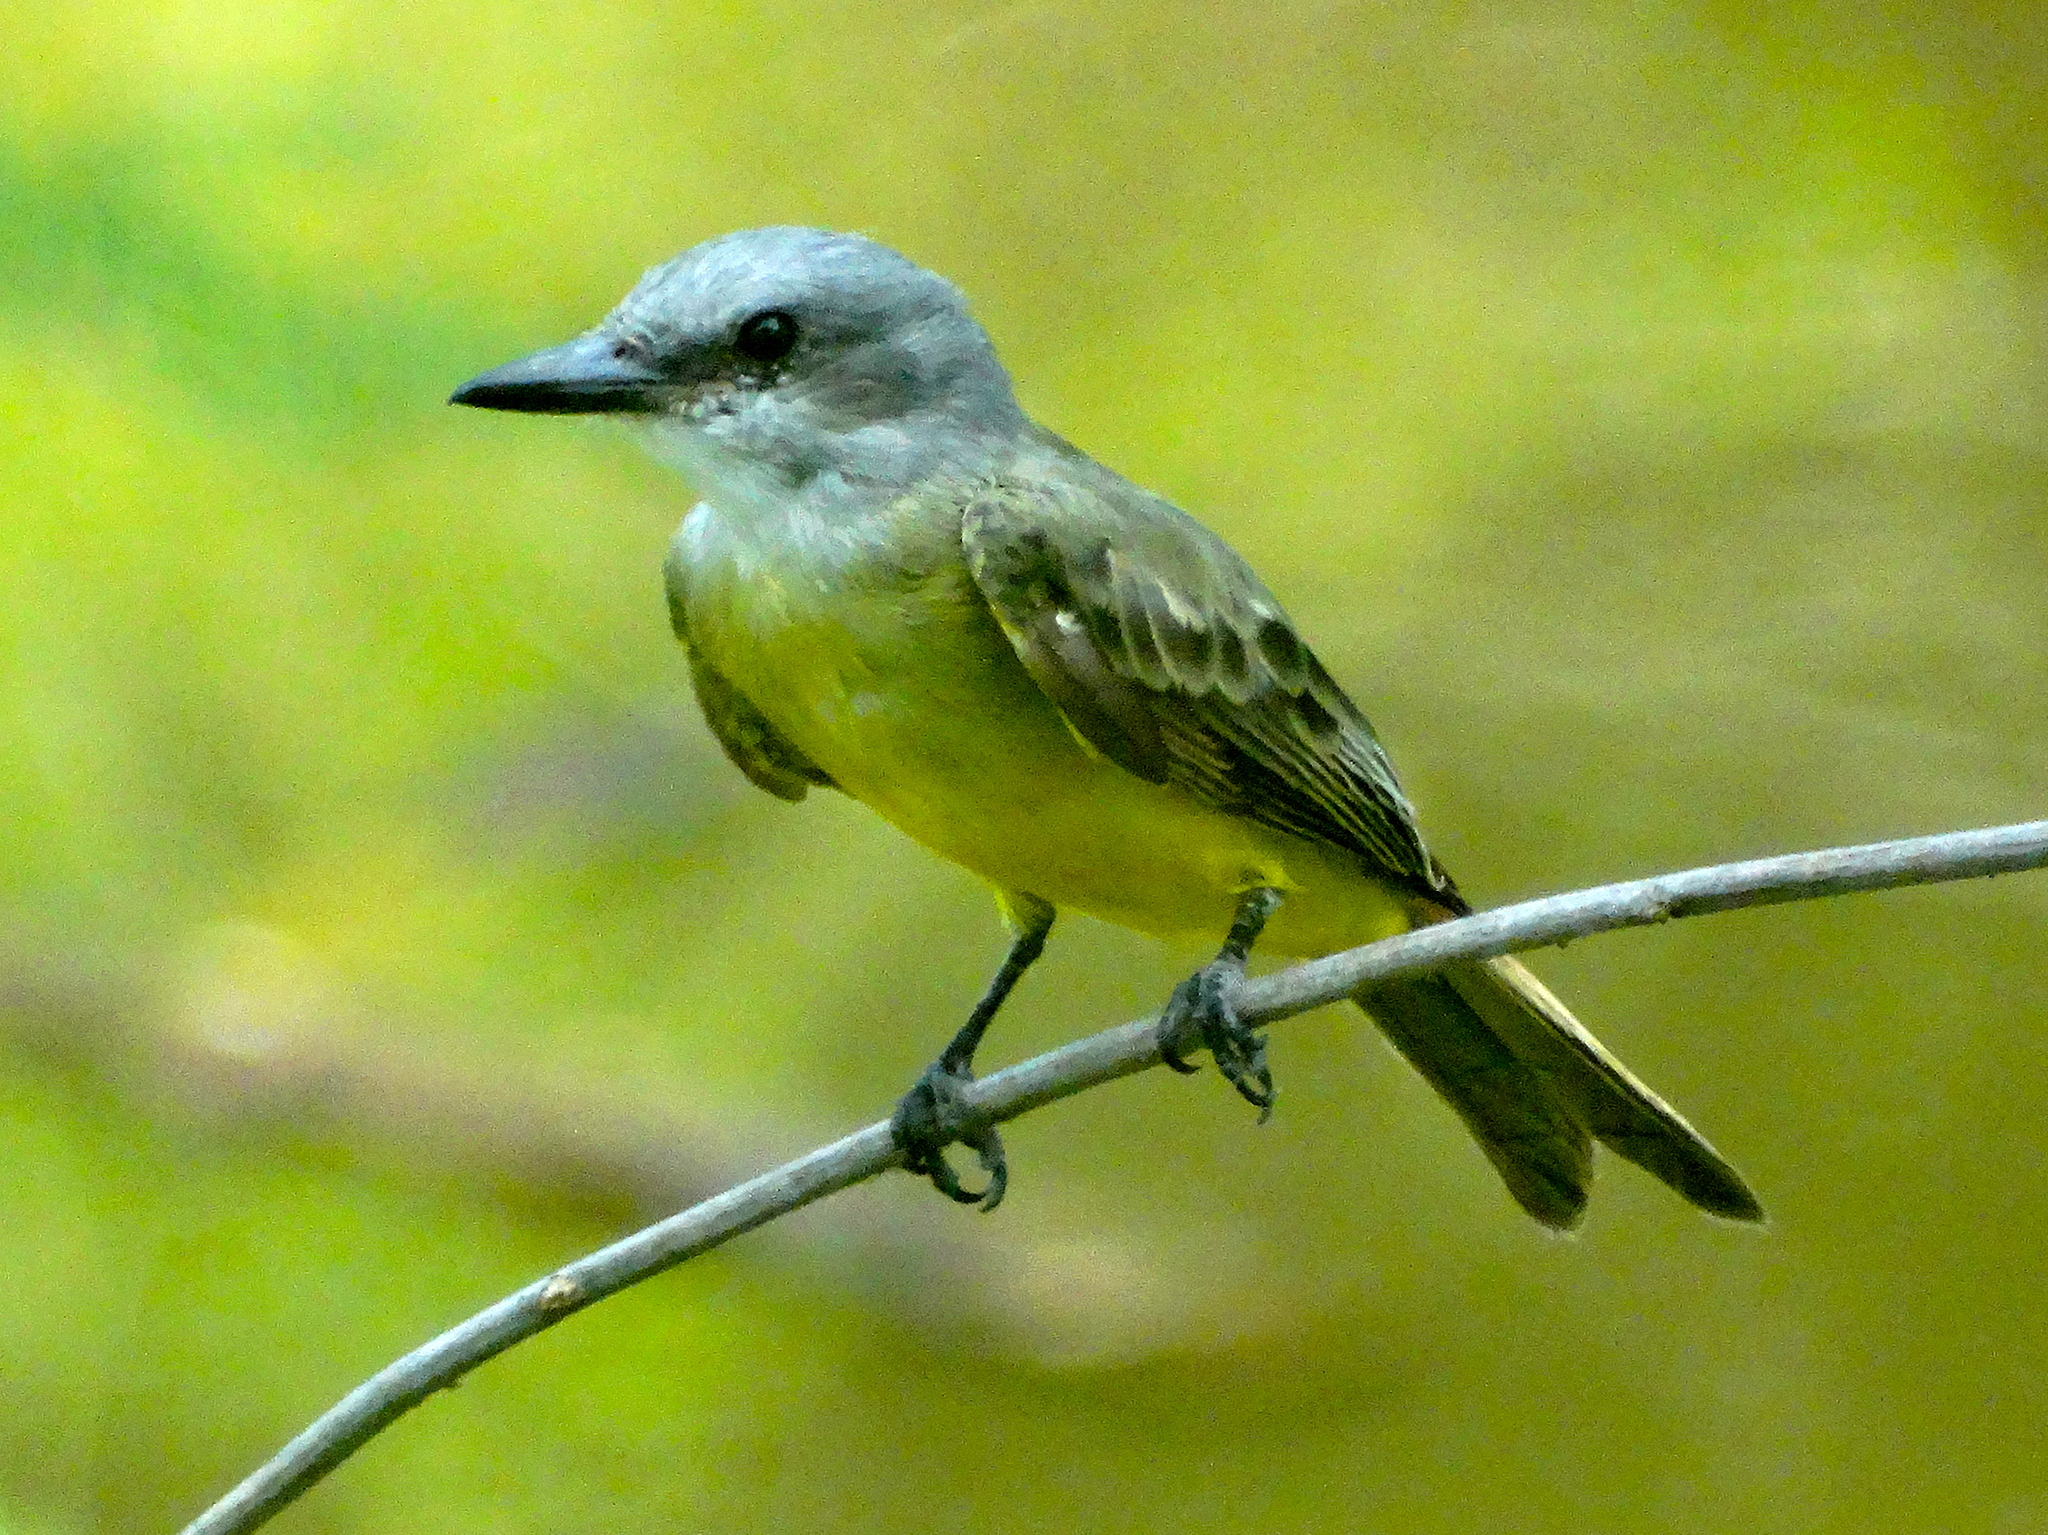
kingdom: Animalia
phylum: Chordata
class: Aves
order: Passeriformes
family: Tyrannidae
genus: Tyrannus
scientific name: Tyrannus melancholicus
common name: Tropical kingbird
